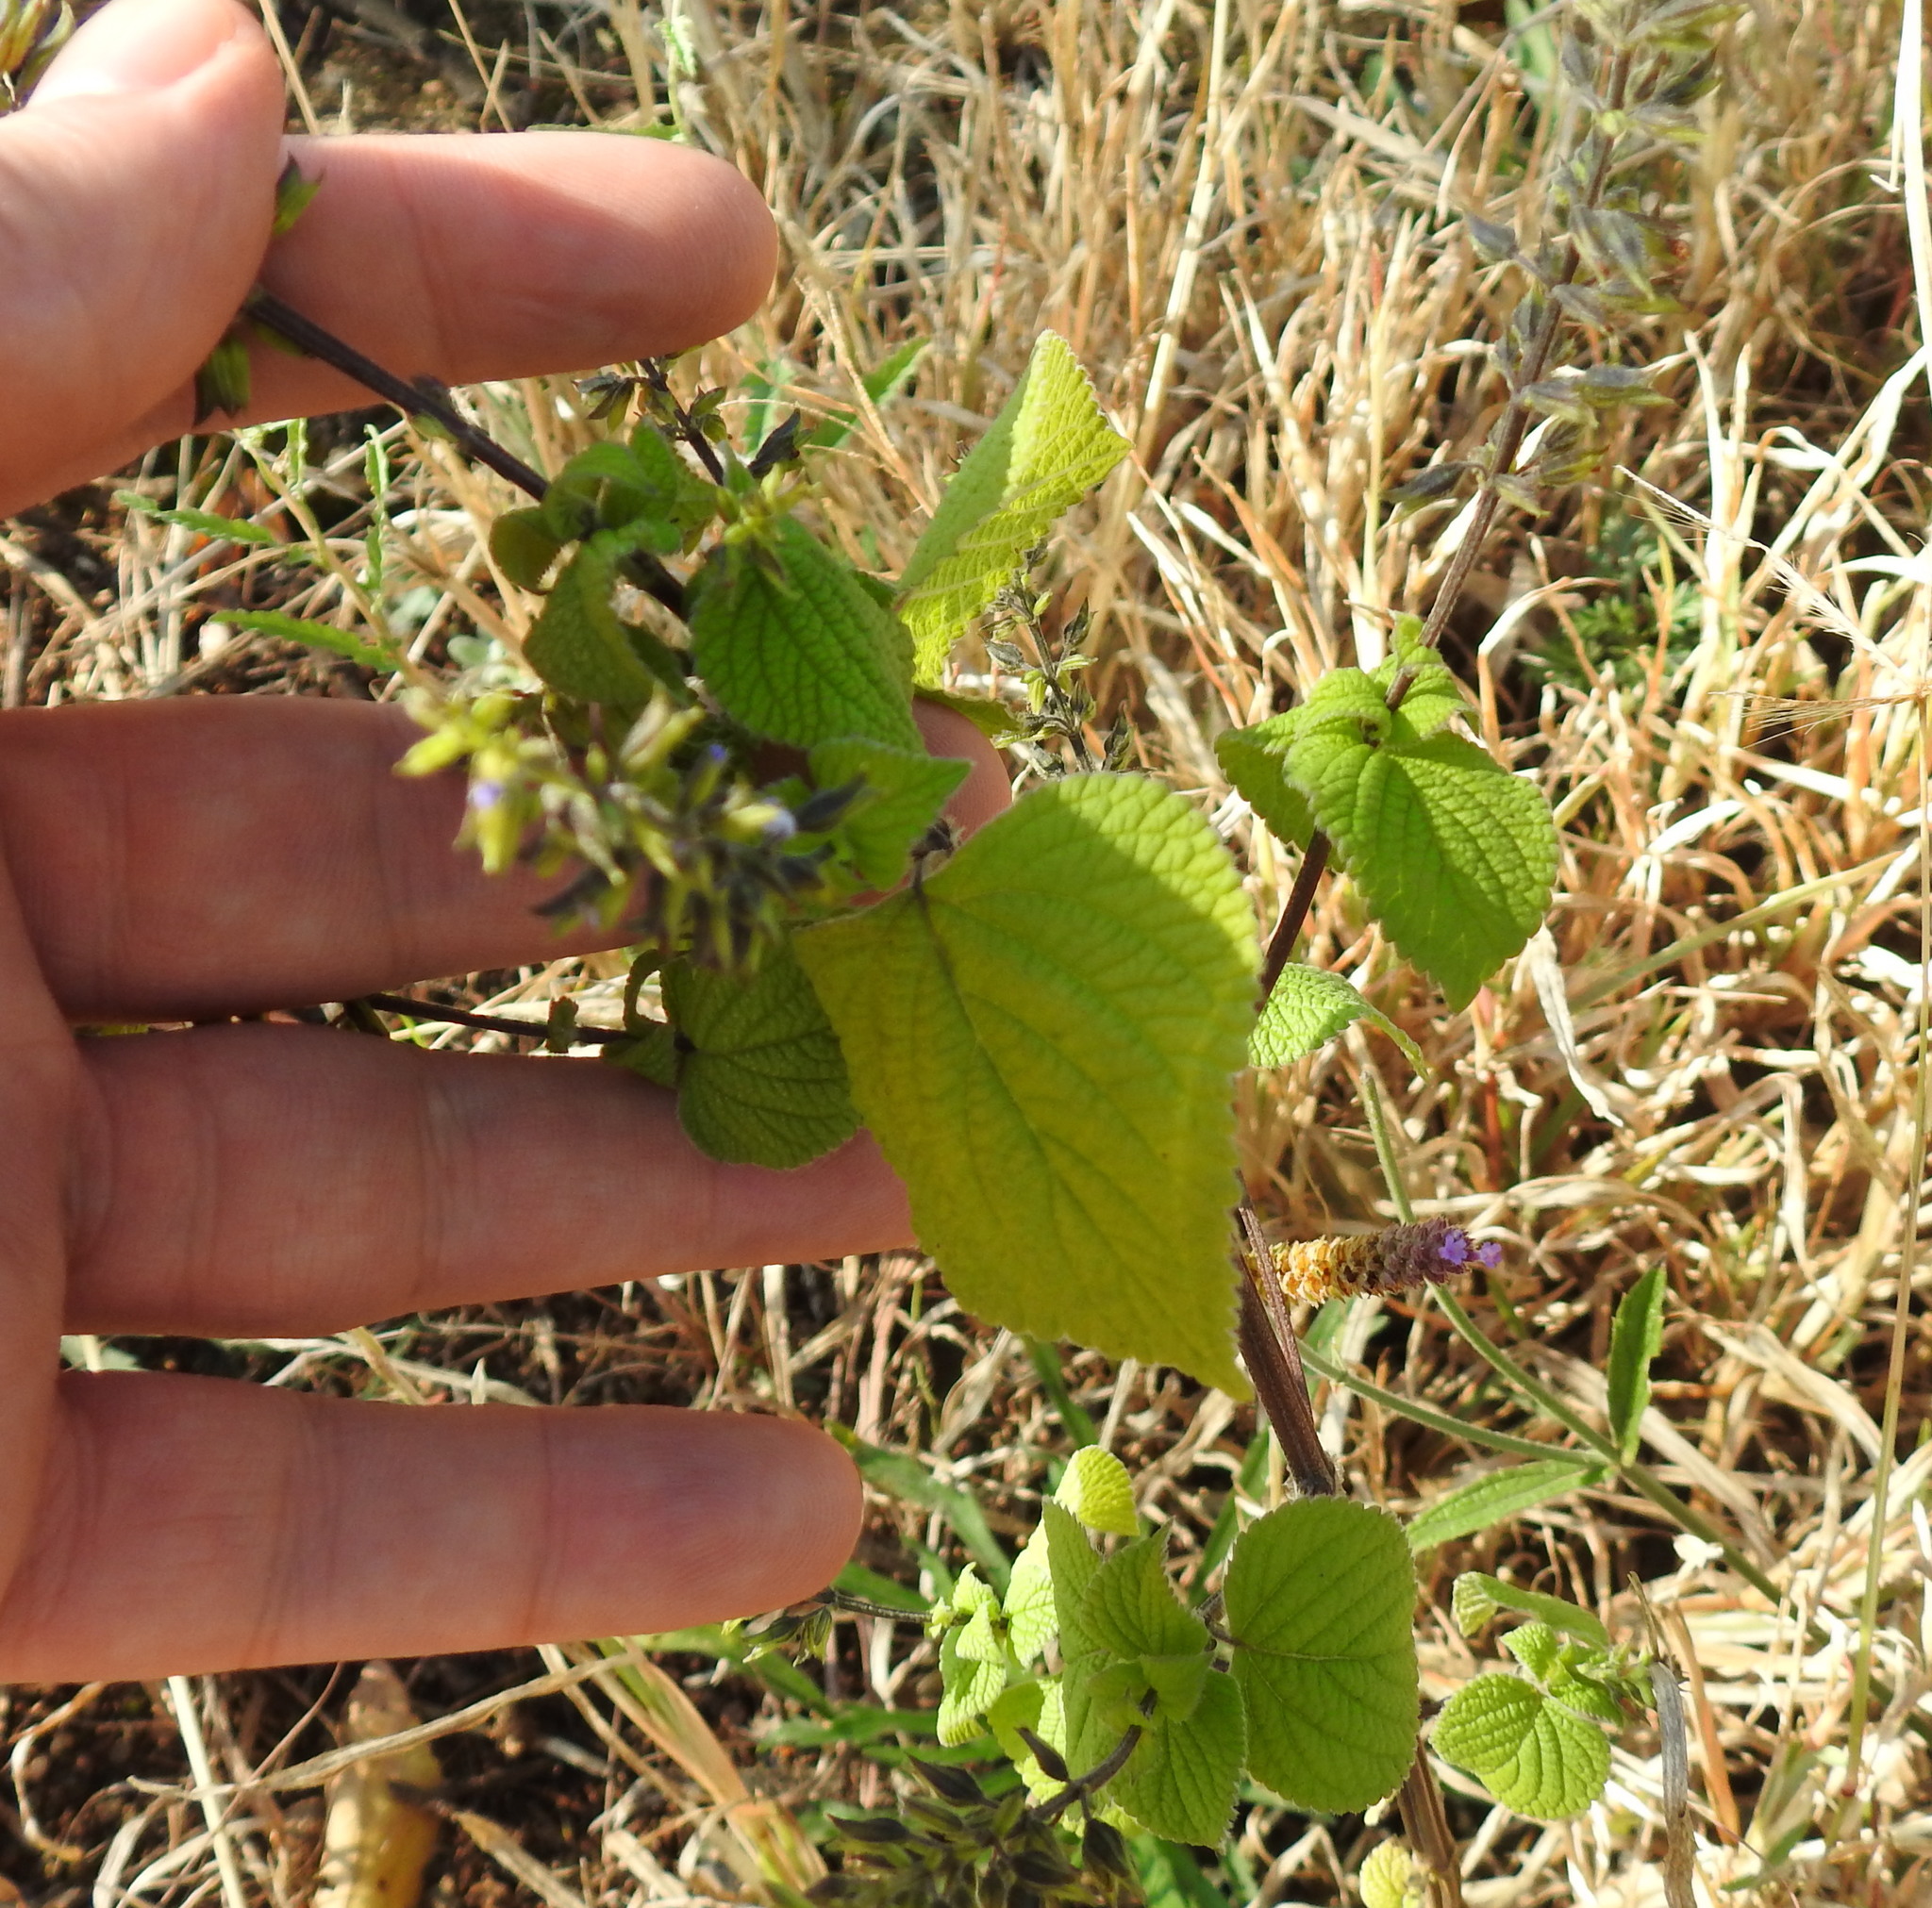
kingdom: Plantae
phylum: Tracheophyta
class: Magnoliopsida
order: Lamiales
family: Lamiaceae
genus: Salvia
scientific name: Salvia tiliifolia
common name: Lindenleaf sage
